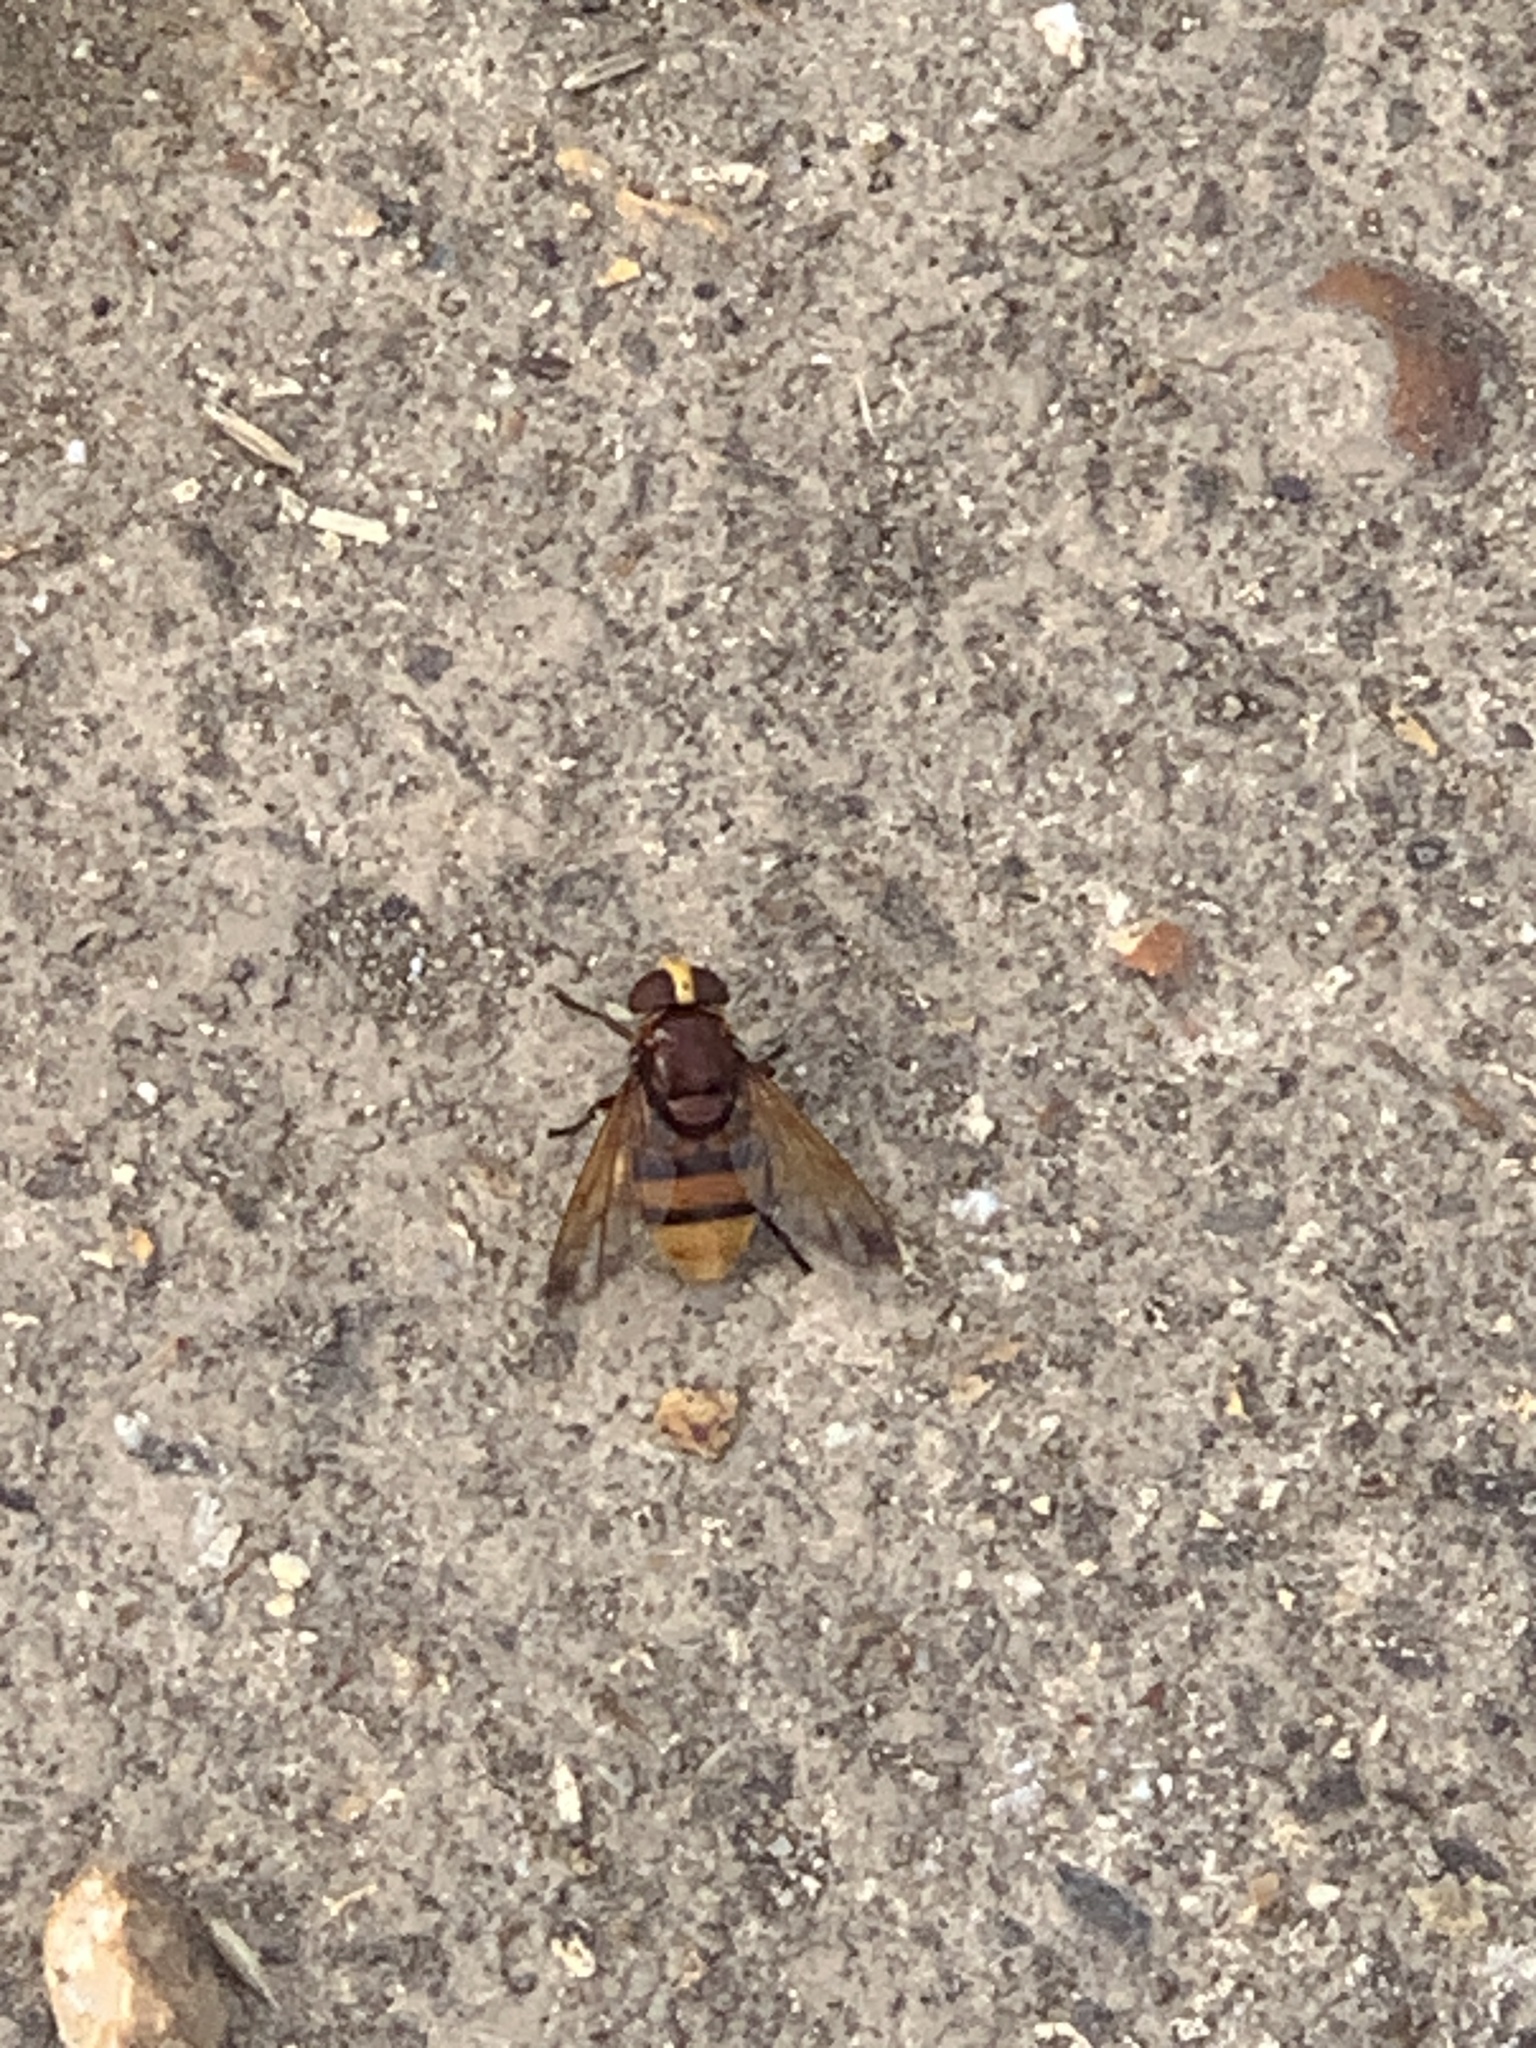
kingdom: Animalia
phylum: Arthropoda
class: Insecta
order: Diptera
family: Syrphidae
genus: Volucella
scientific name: Volucella zonaria
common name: Hornet hoverfly
